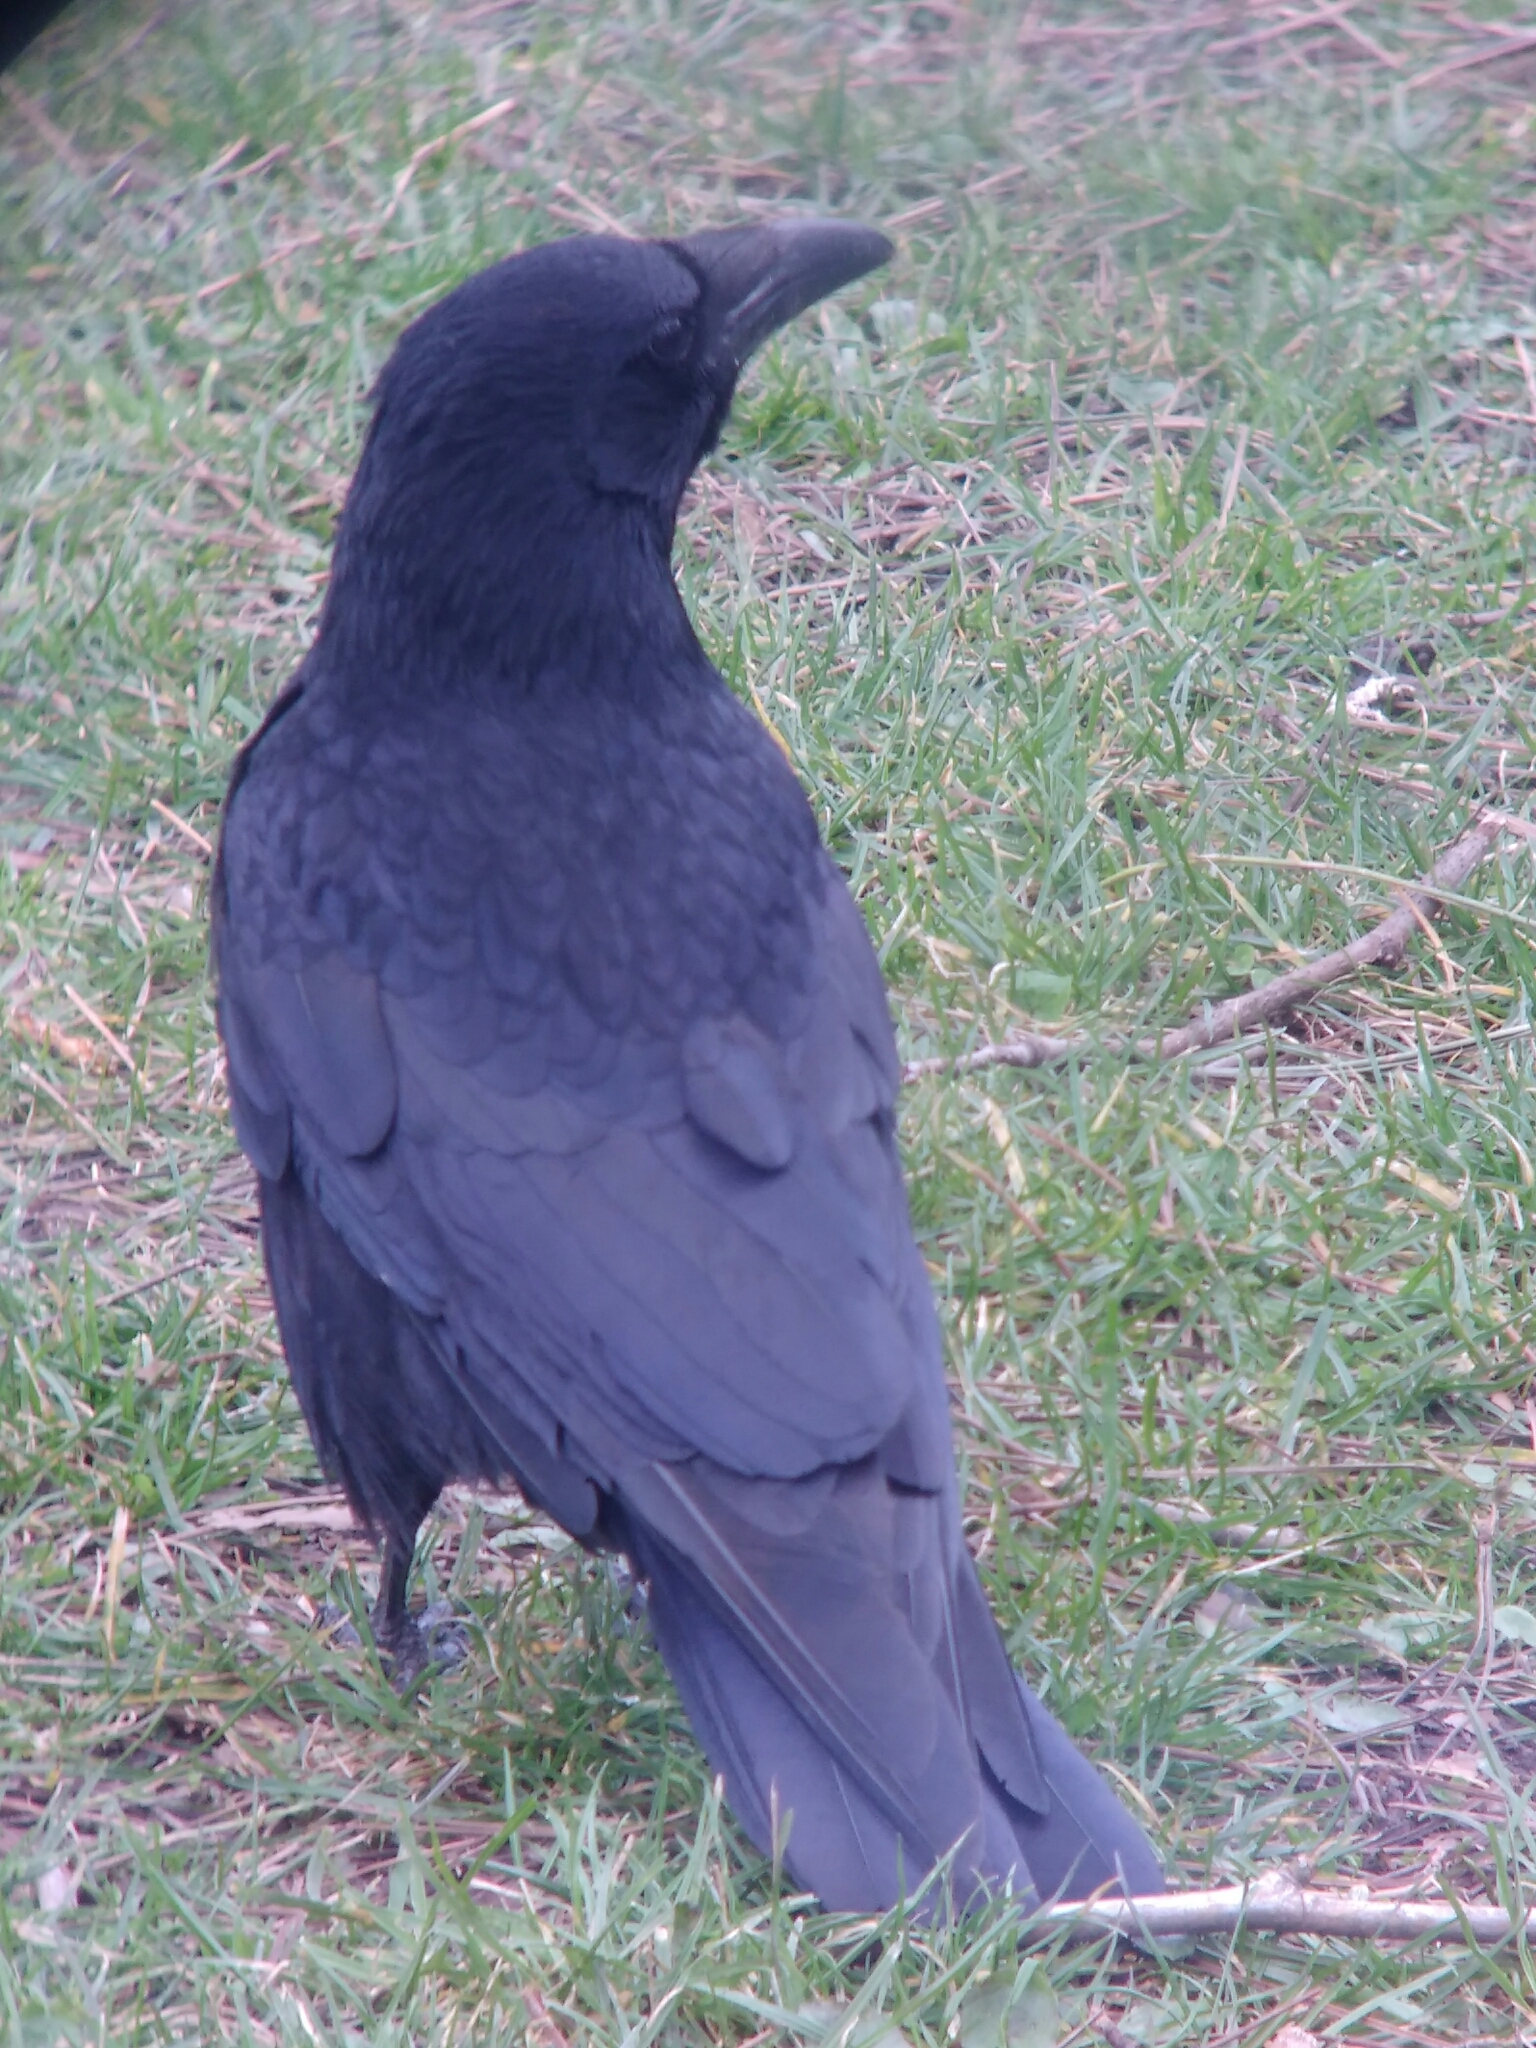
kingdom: Animalia
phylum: Chordata
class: Aves
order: Passeriformes
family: Corvidae
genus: Corvus
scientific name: Corvus corone
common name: Carrion crow
